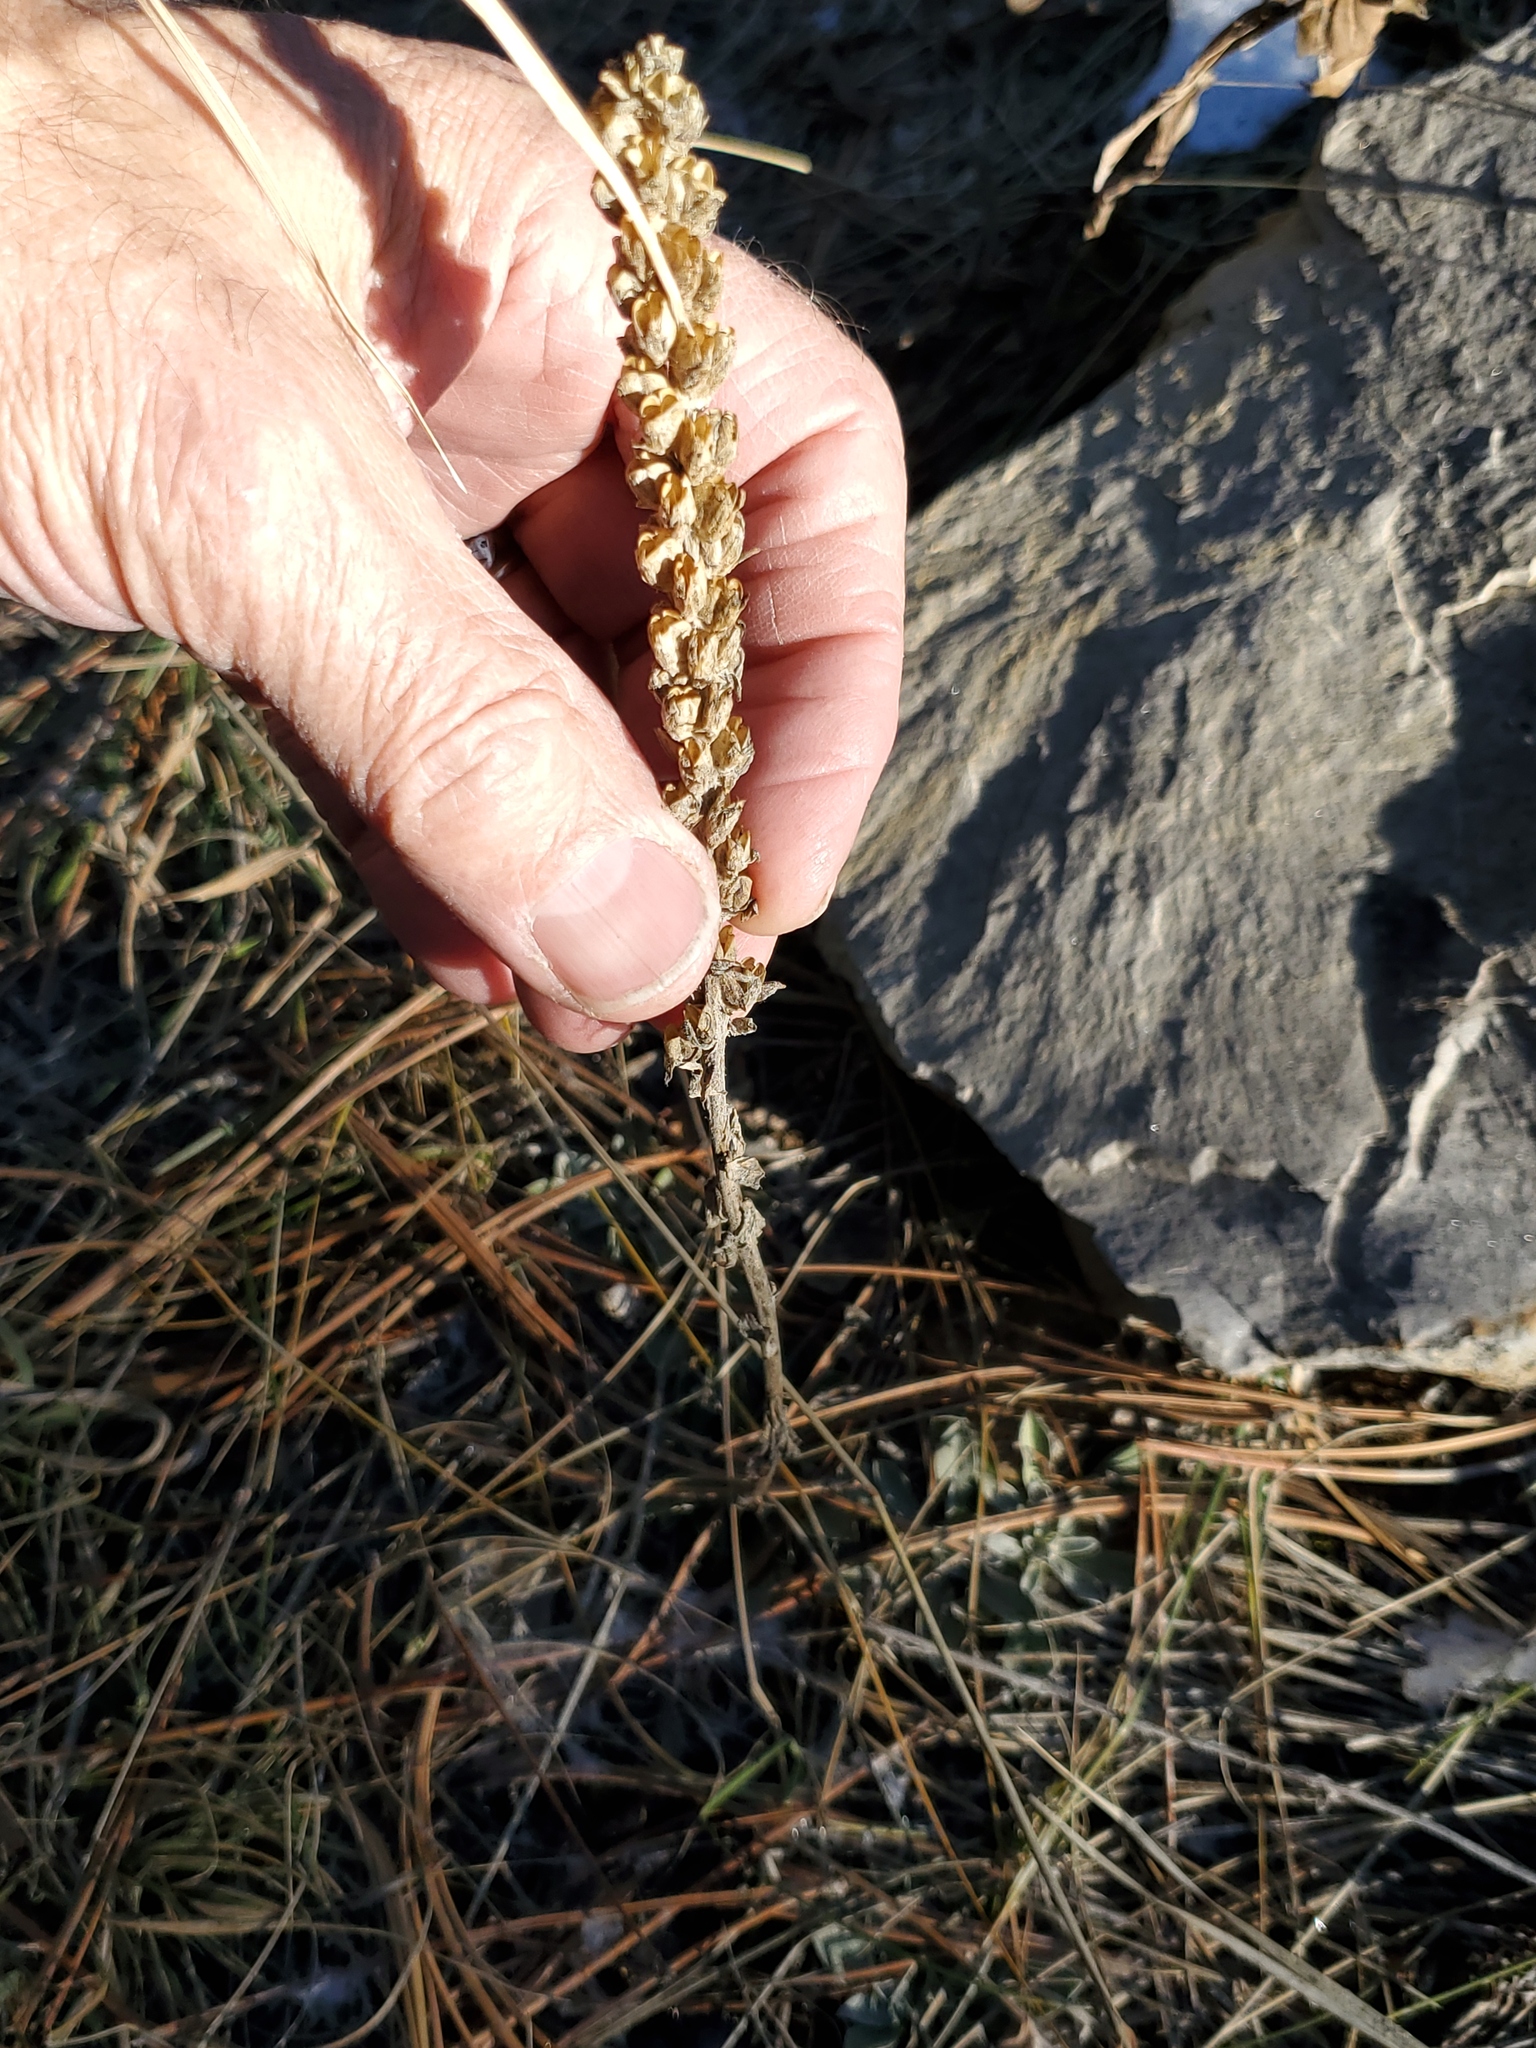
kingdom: Plantae
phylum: Tracheophyta
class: Magnoliopsida
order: Lamiales
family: Plantaginaceae
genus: Synthyris
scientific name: Synthyris wyomingensis
